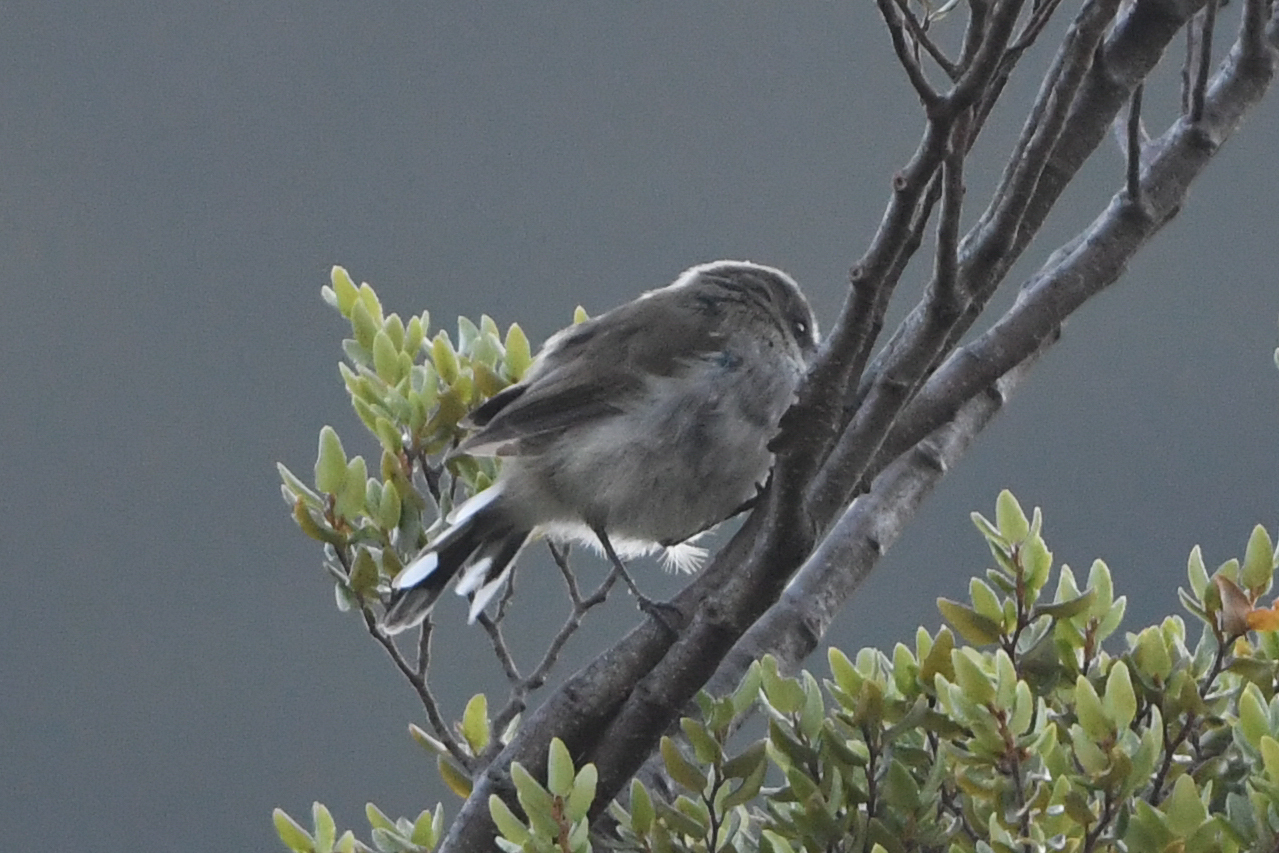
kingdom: Animalia
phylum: Chordata
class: Aves
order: Passeriformes
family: Acanthizidae
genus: Gerygone
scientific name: Gerygone igata
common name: Grey gerygone
